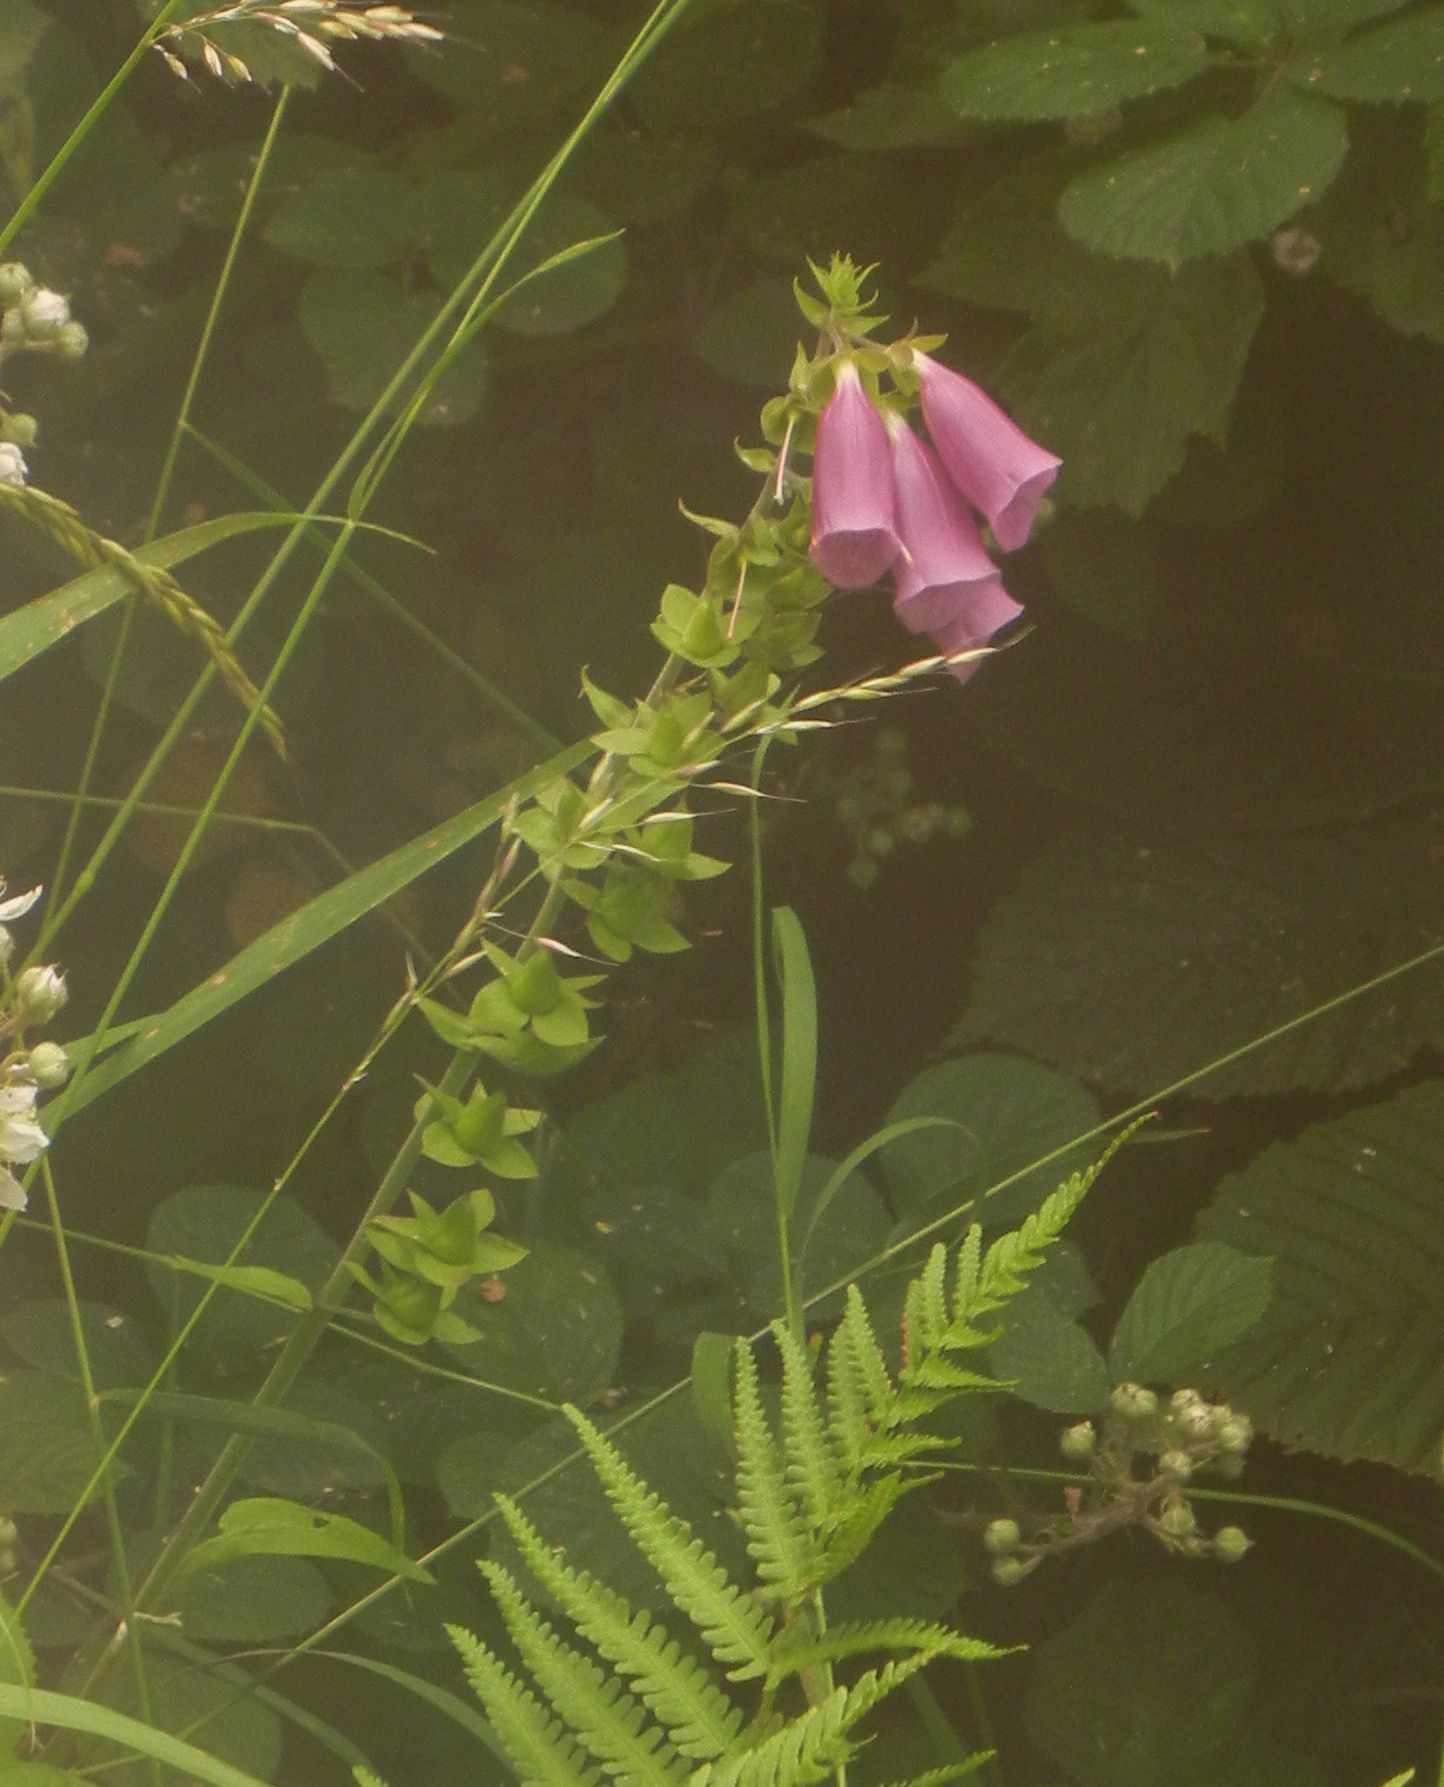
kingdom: Plantae
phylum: Tracheophyta
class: Magnoliopsida
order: Lamiales
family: Plantaginaceae
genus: Digitalis
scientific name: Digitalis purpurea
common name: Foxglove
